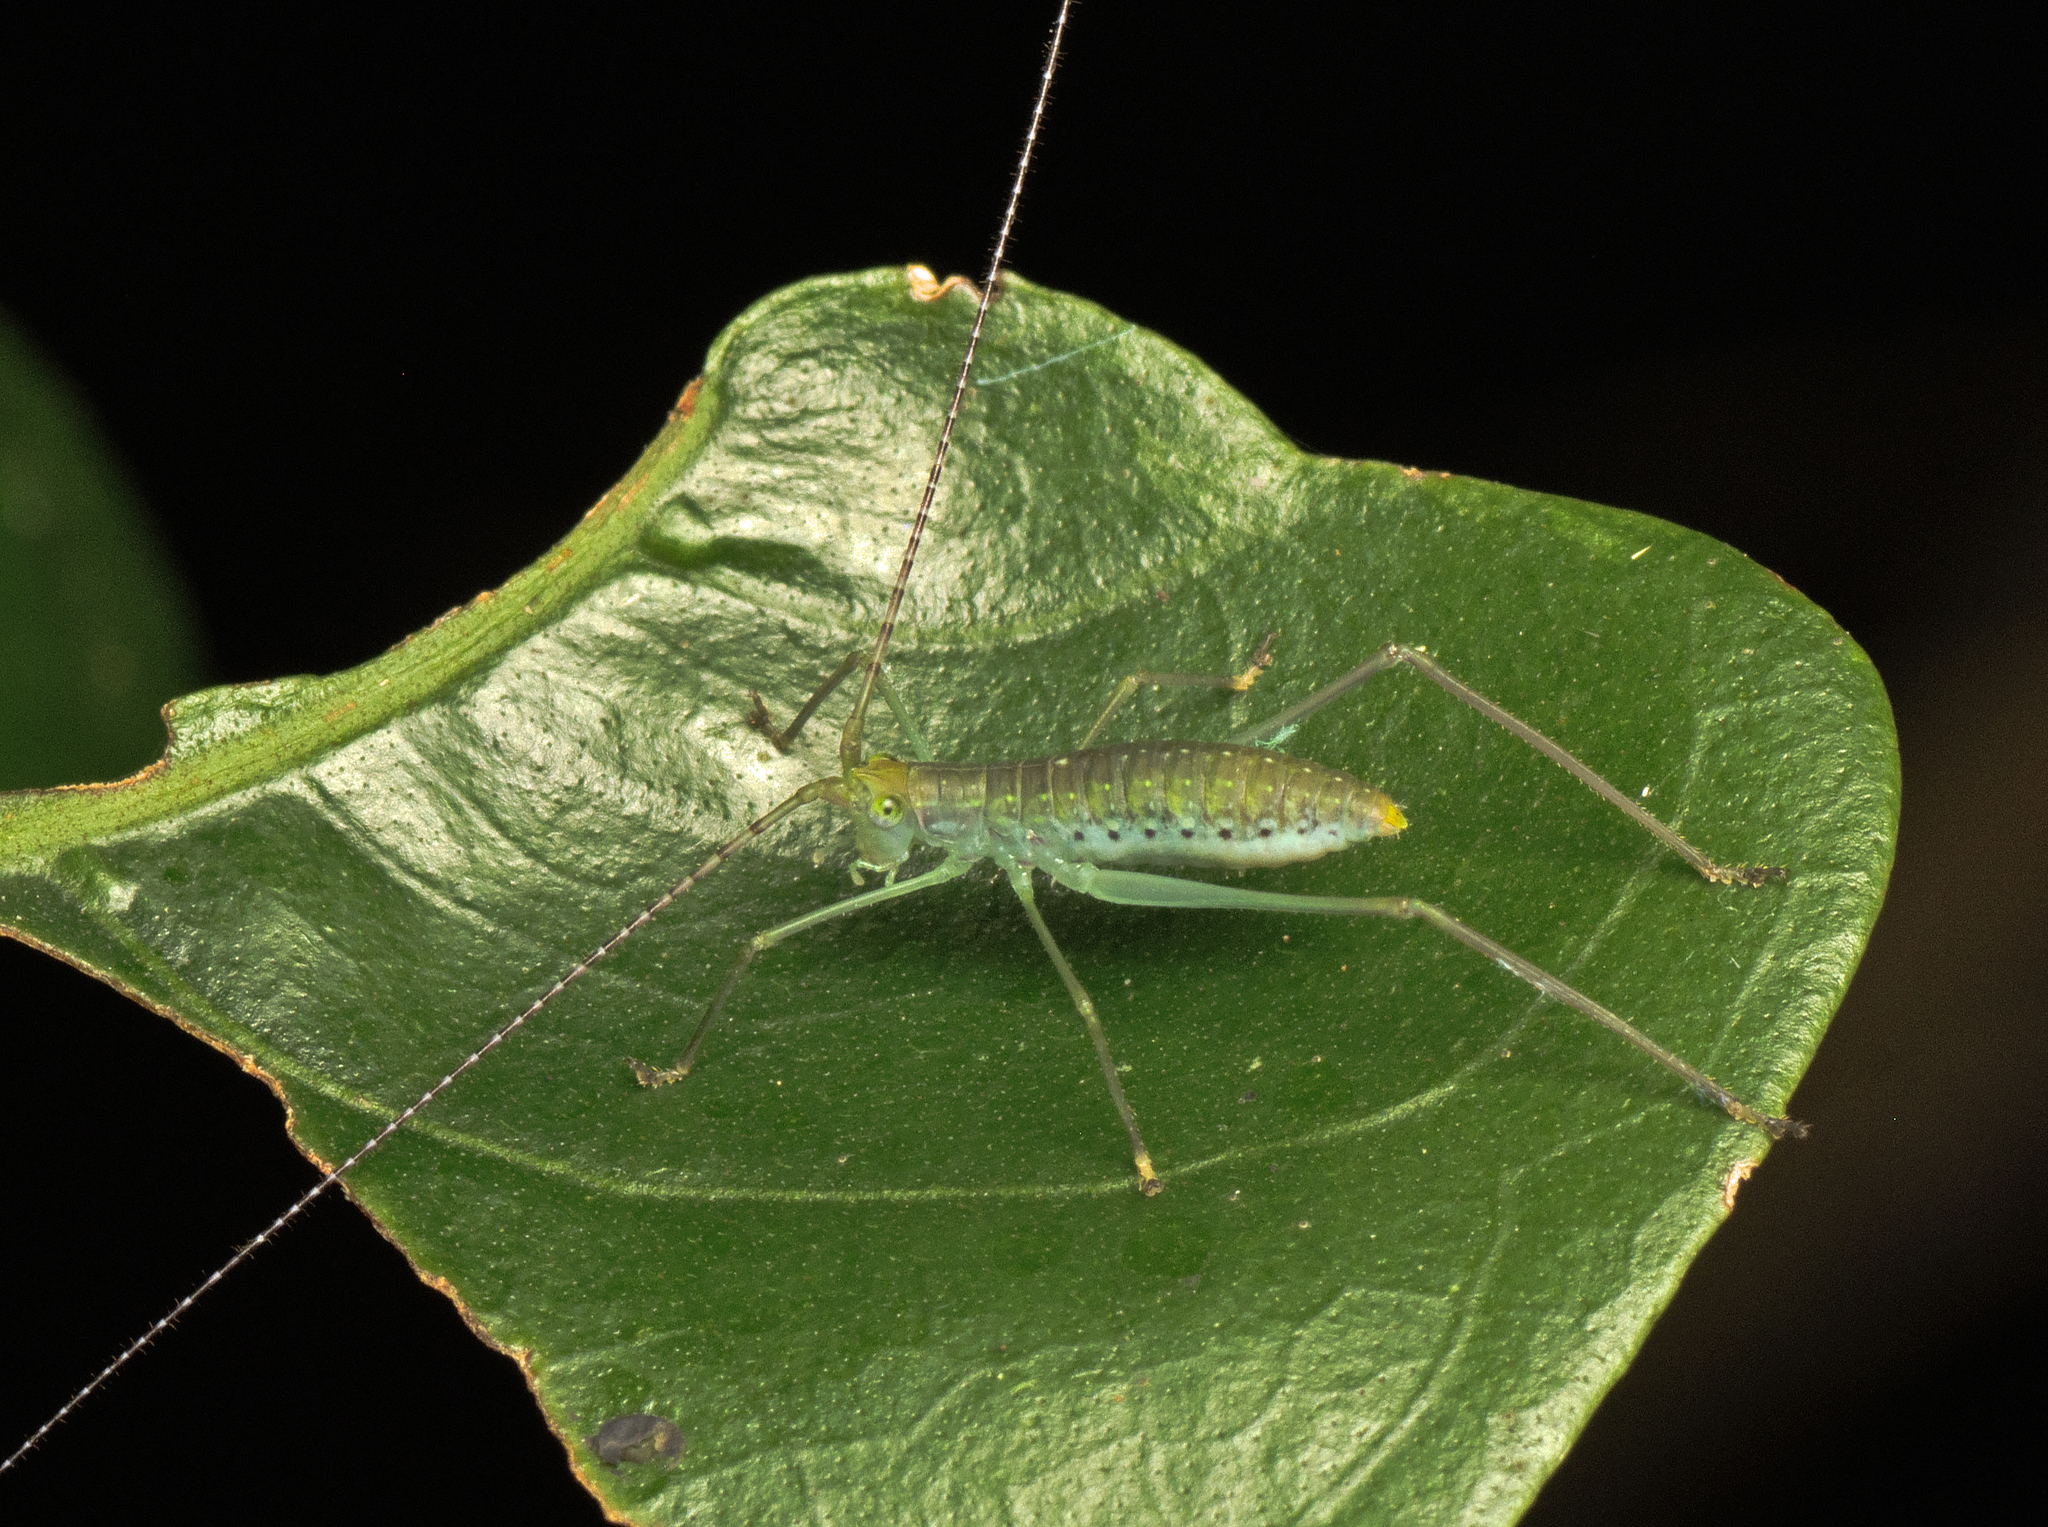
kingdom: Animalia
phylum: Arthropoda
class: Insecta
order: Orthoptera
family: Tettigoniidae
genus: Chloracantha
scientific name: Chloracantha lampra
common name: Delicate false-leaf katydid
